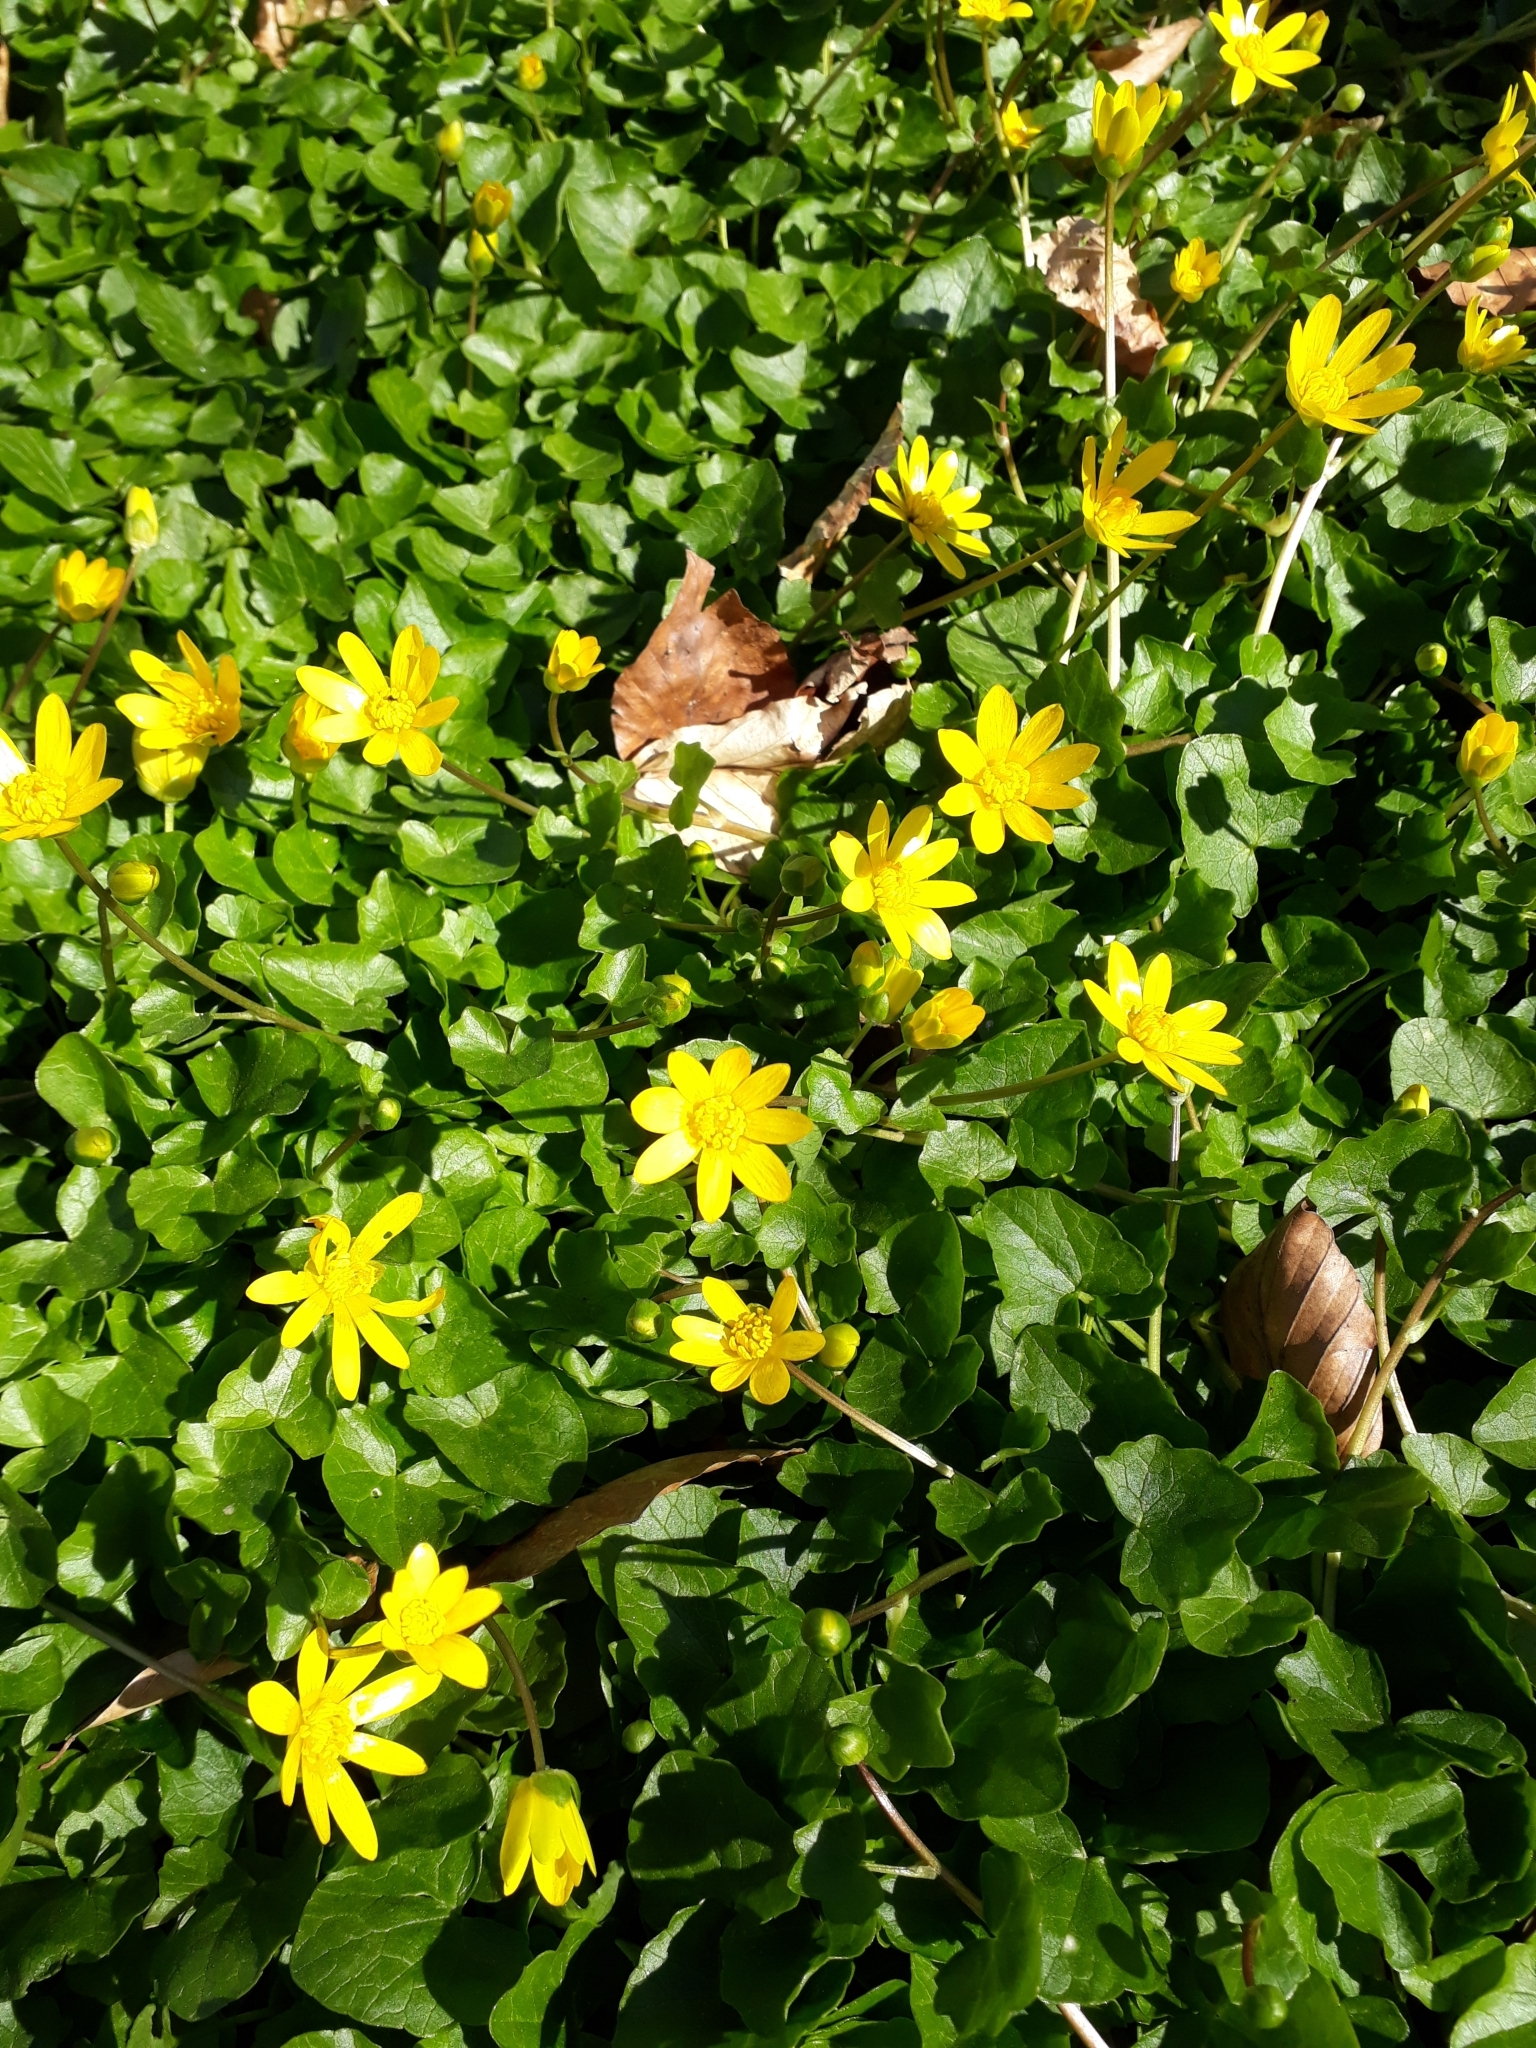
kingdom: Plantae
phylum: Tracheophyta
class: Magnoliopsida
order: Ranunculales
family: Ranunculaceae
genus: Ficaria
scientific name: Ficaria verna
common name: Lesser celandine
